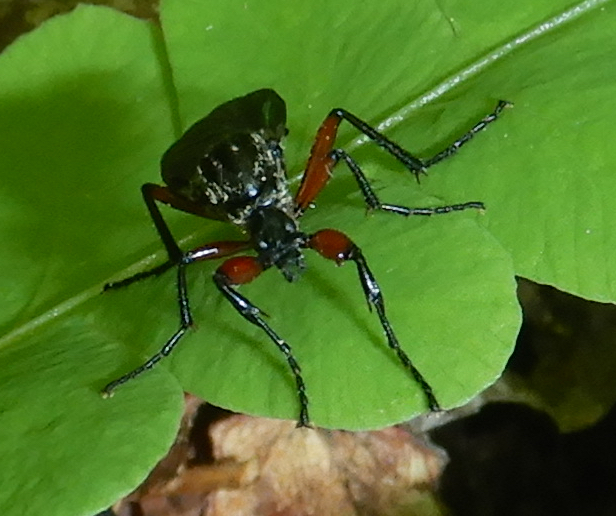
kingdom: Animalia
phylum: Arthropoda
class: Insecta
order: Diptera
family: Bibionidae
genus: Bibio
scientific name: Bibio vestitus
